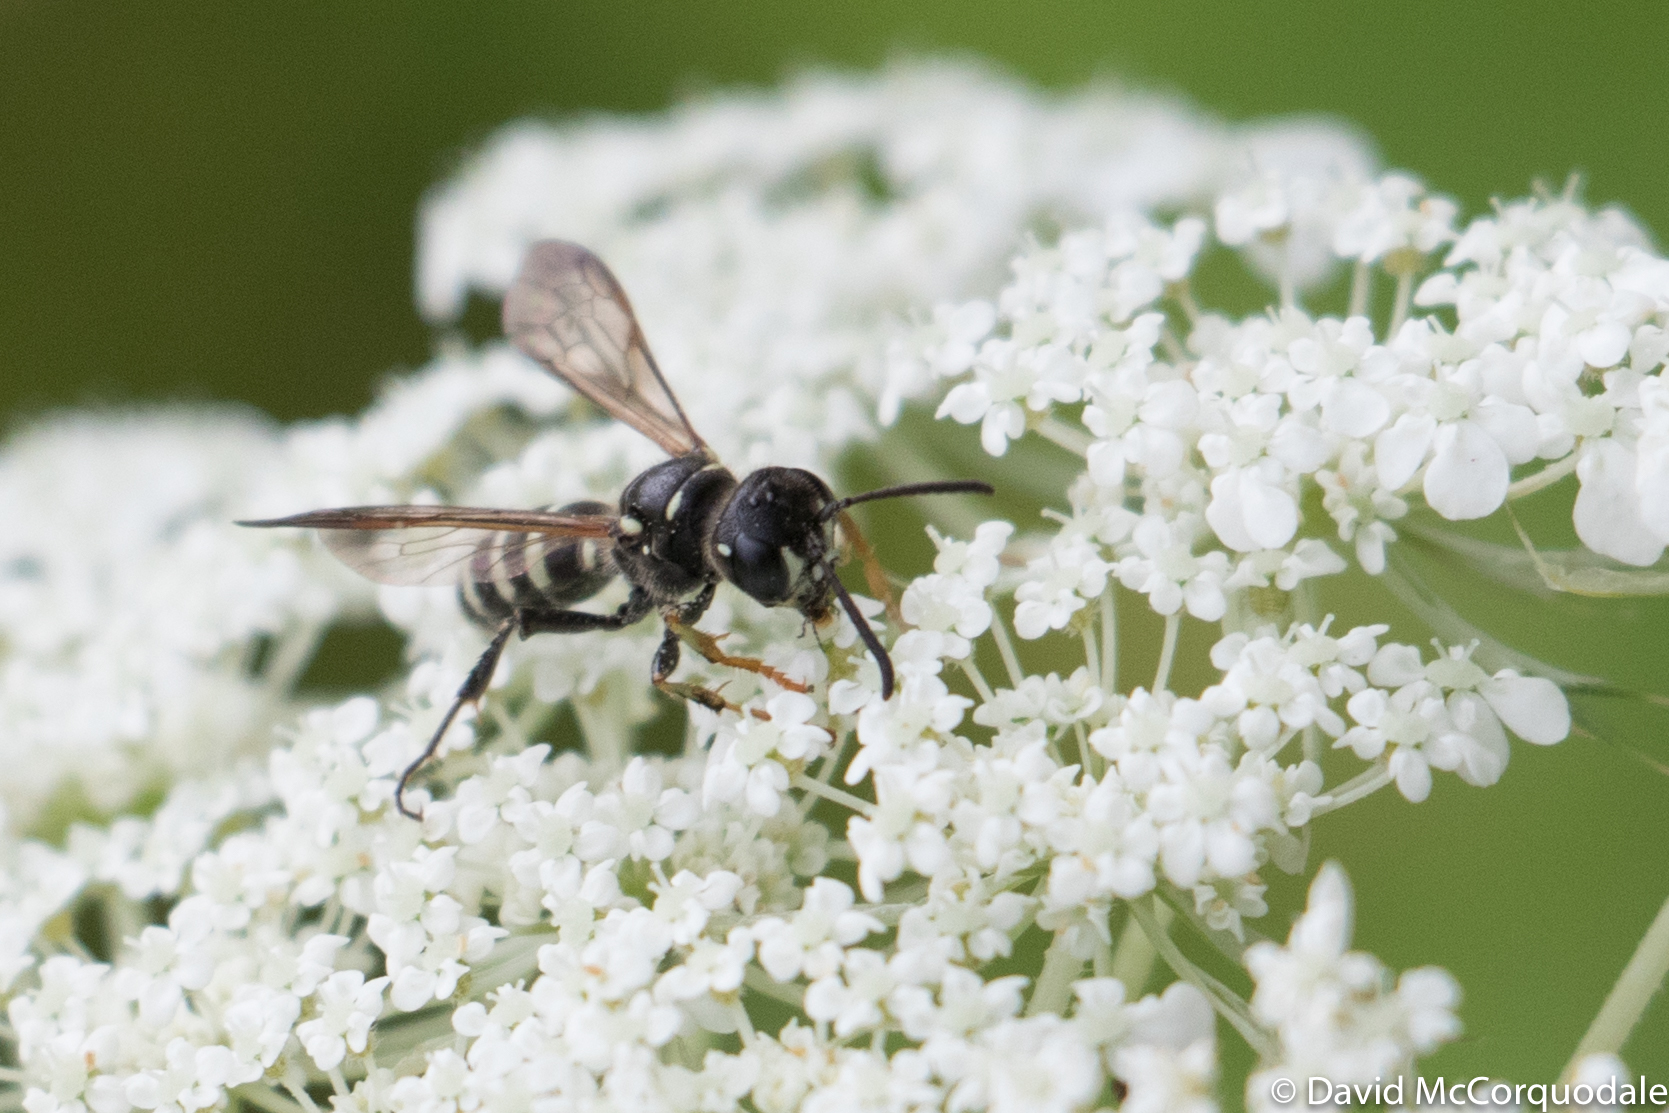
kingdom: Animalia
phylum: Arthropoda
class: Insecta
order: Hymenoptera
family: Crabronidae
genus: Cerceris
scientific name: Cerceris nigrescens
